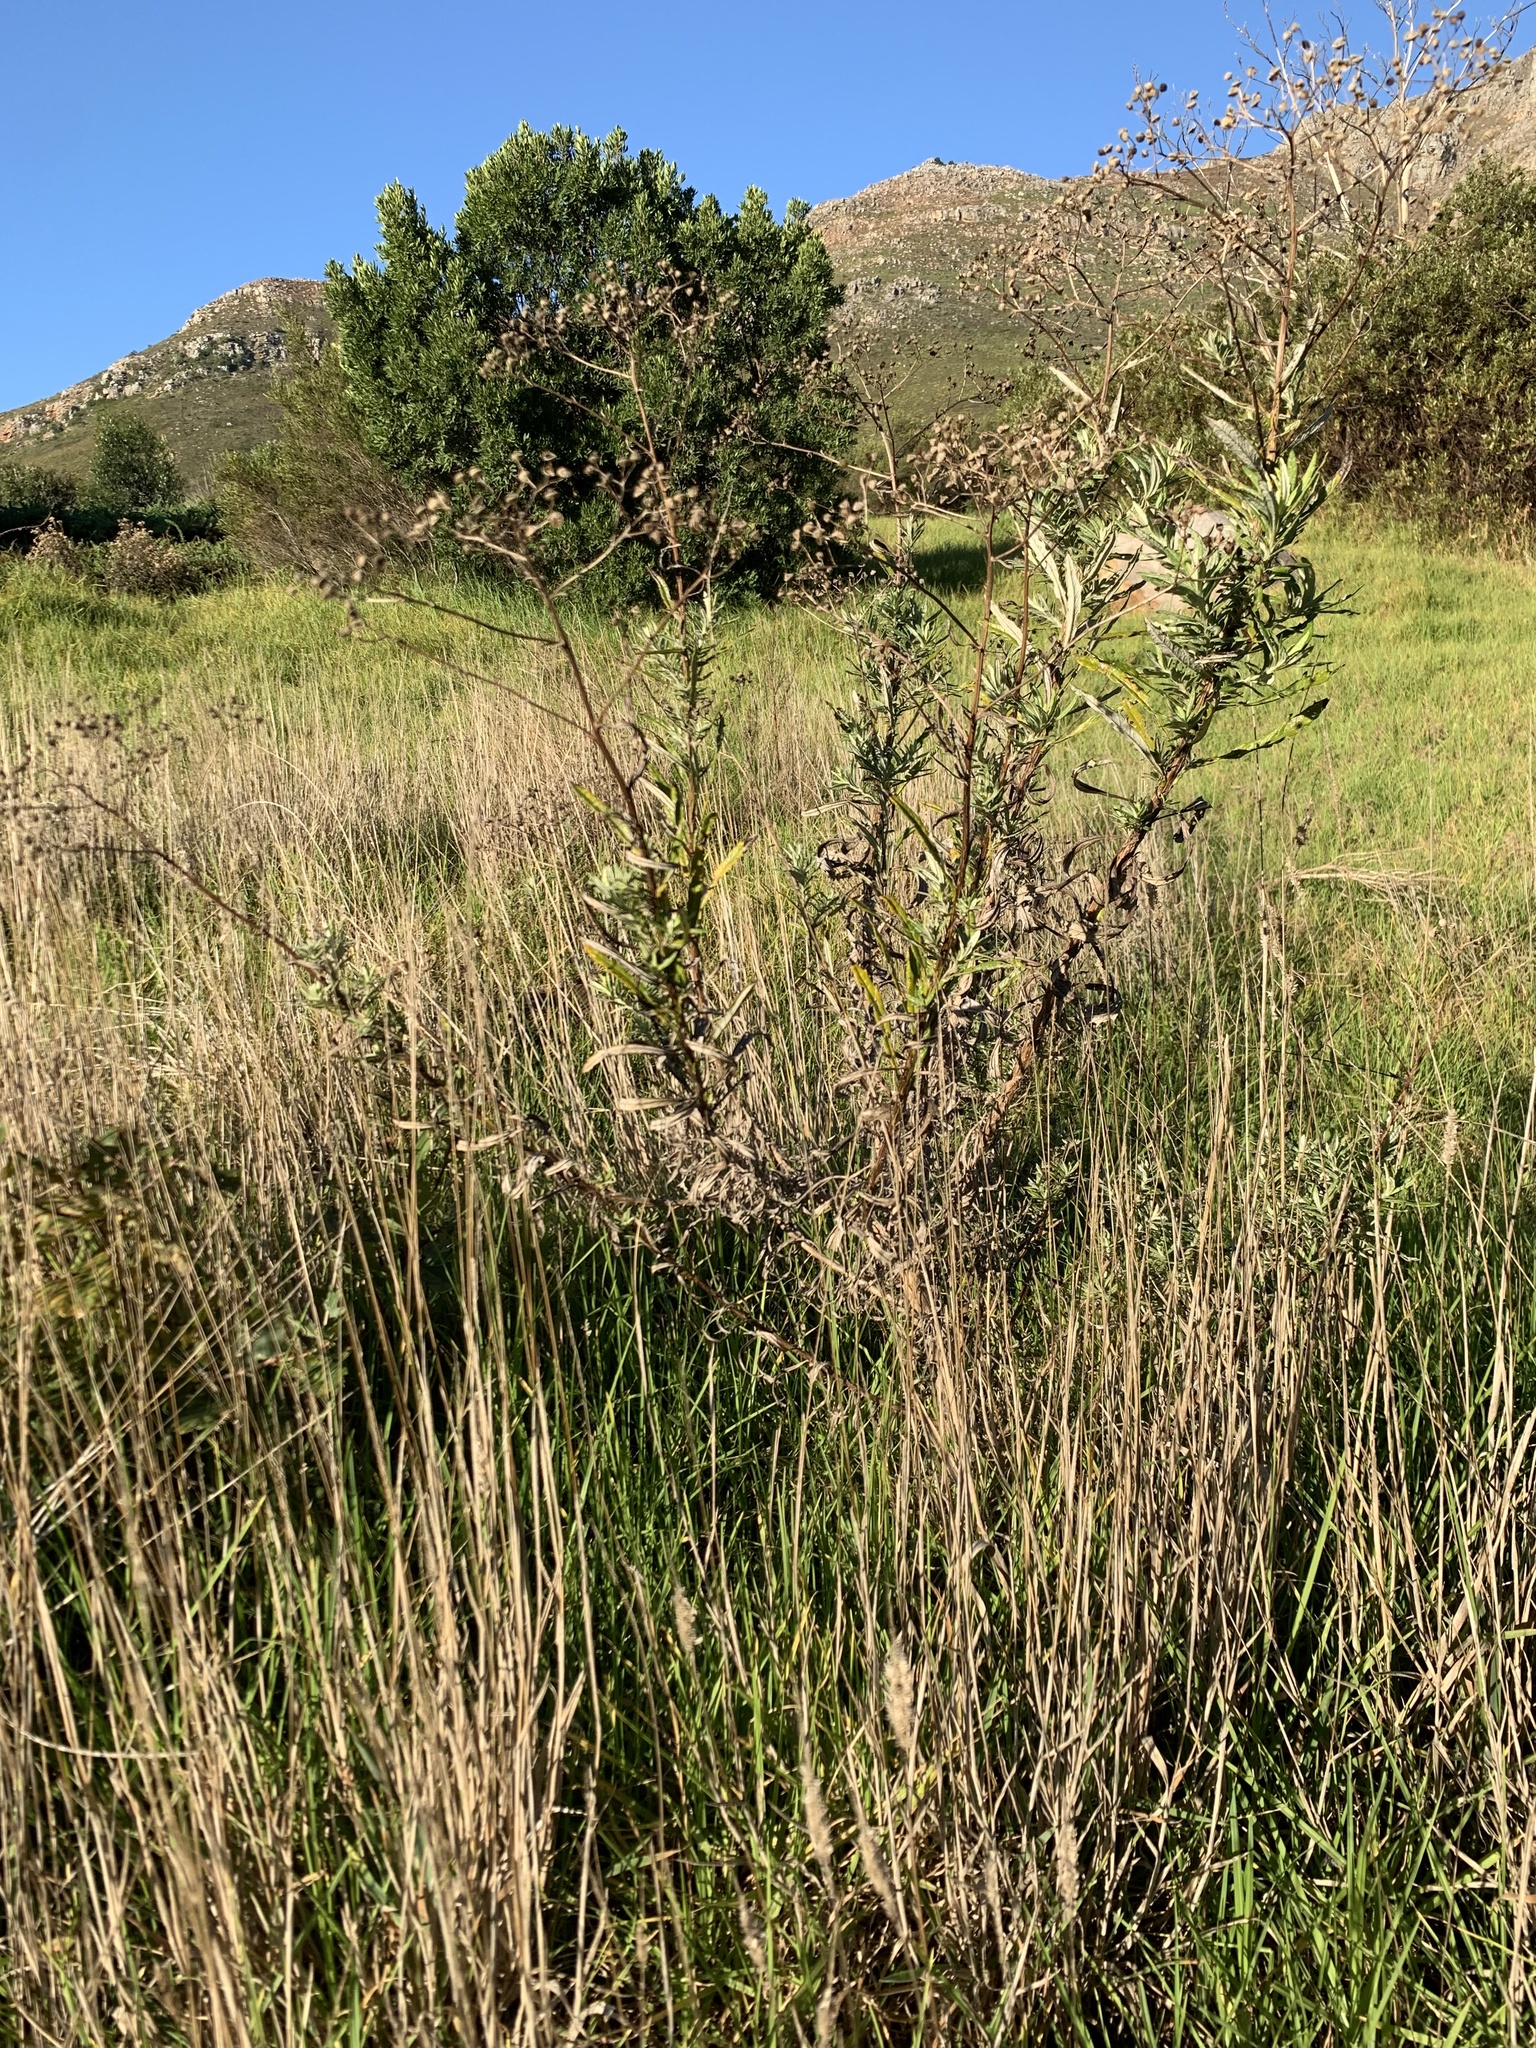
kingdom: Plantae
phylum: Tracheophyta
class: Magnoliopsida
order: Asterales
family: Asteraceae
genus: Senecio
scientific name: Senecio pterophorus
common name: Shoddy ragwort
